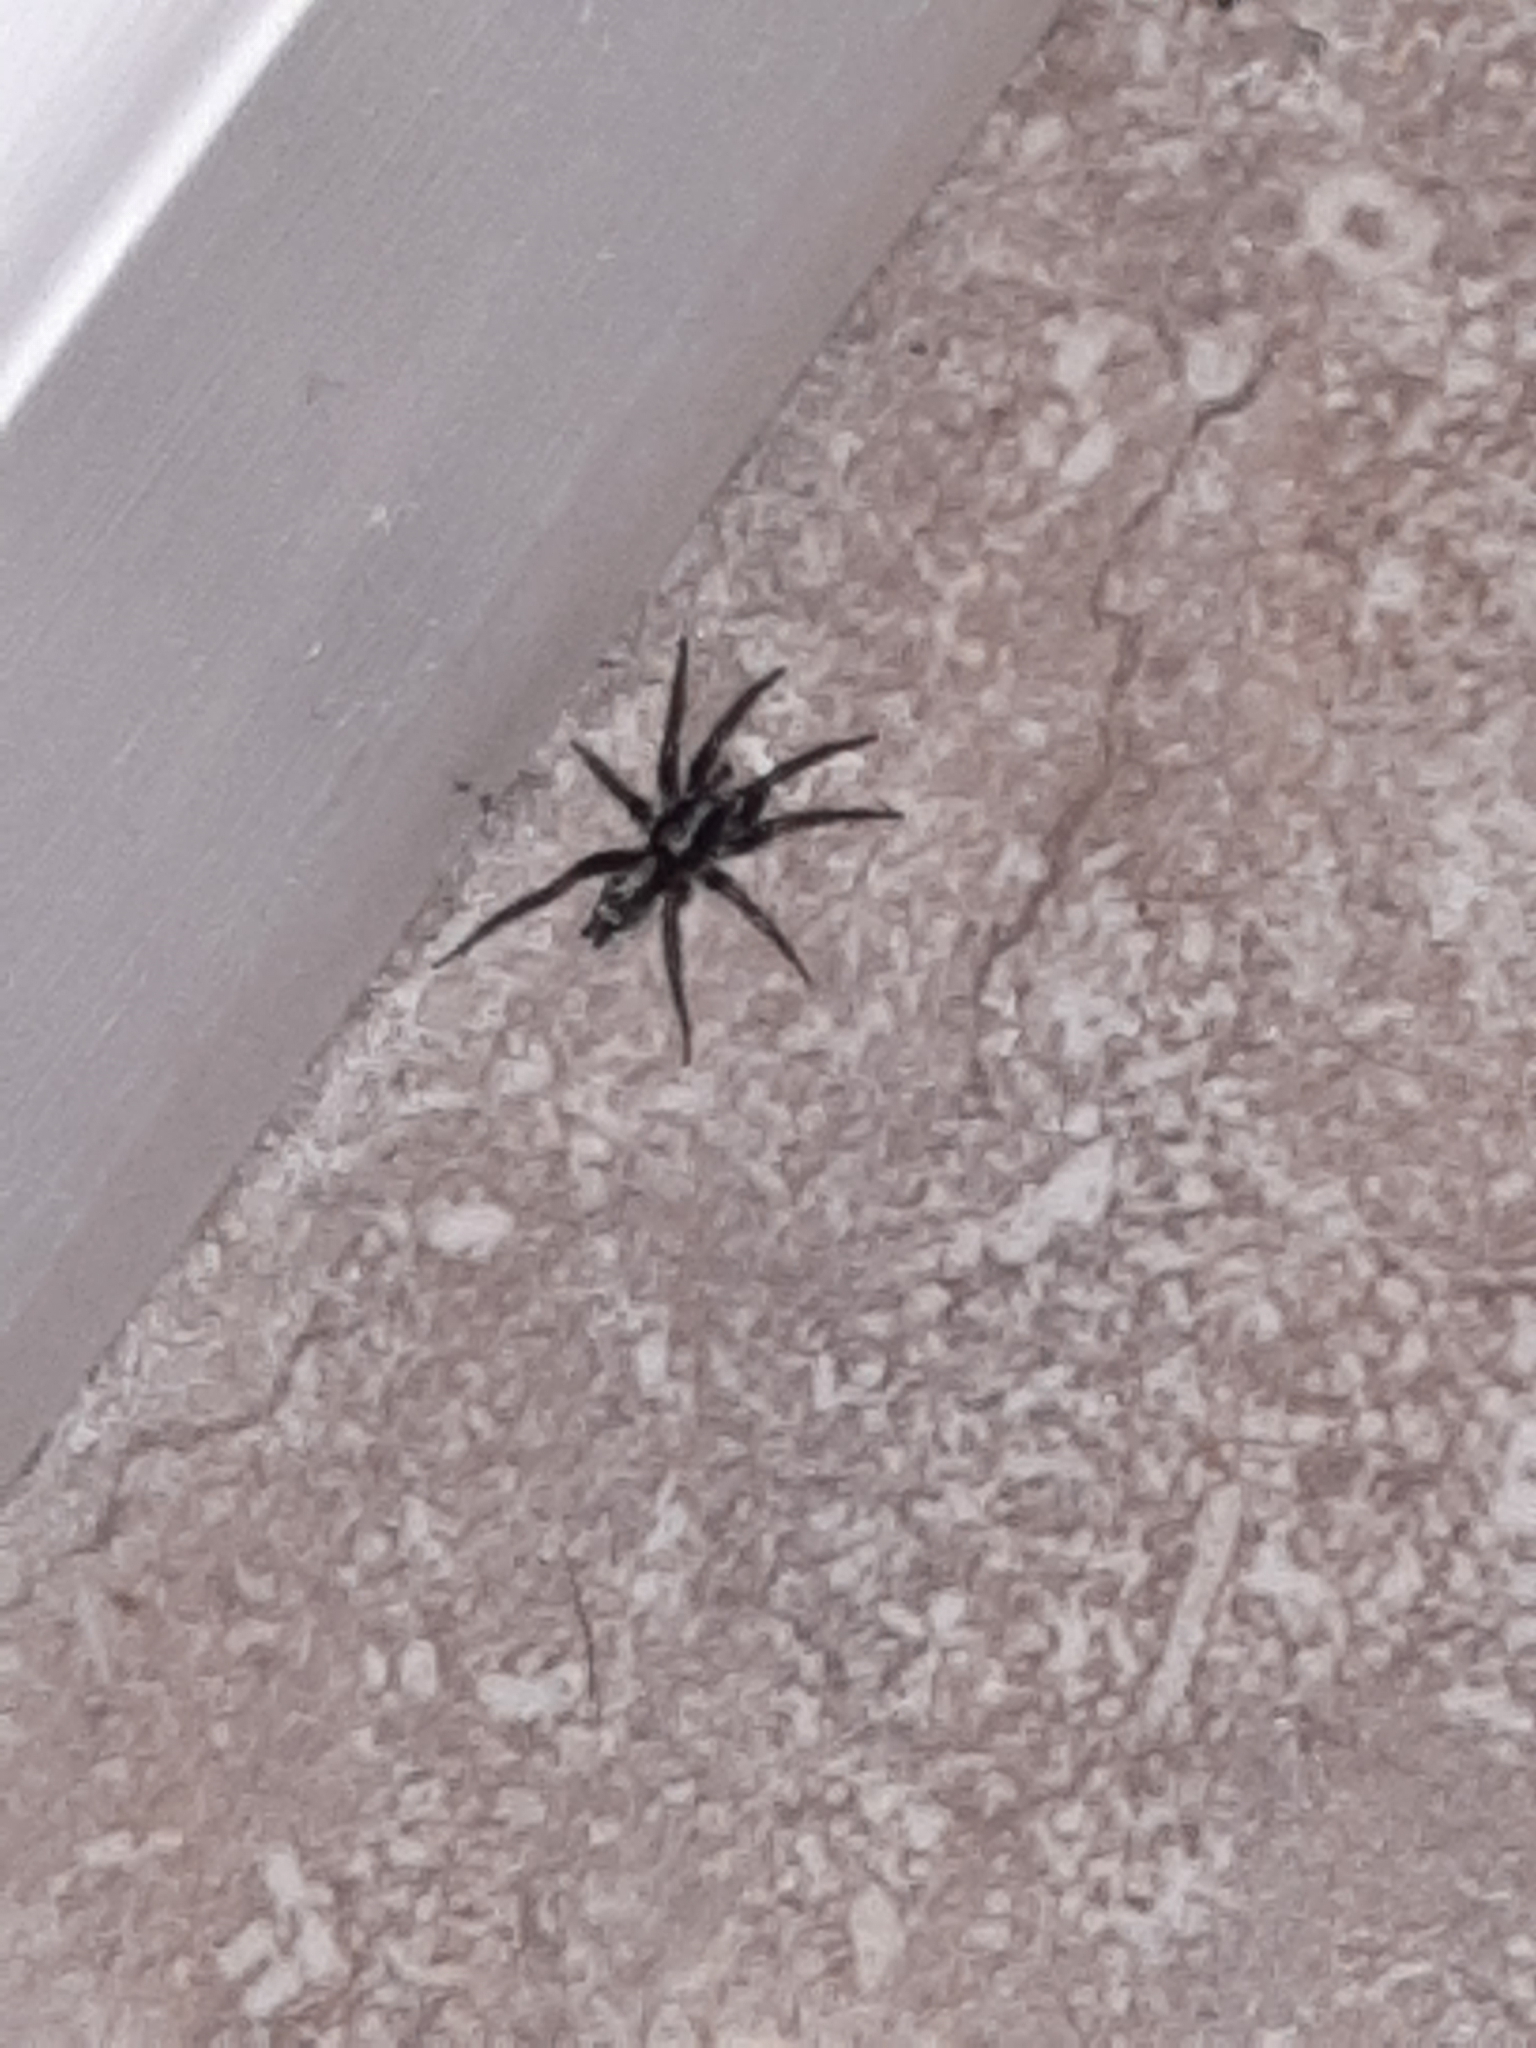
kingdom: Animalia
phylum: Arthropoda
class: Arachnida
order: Araneae
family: Gnaphosidae
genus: Herpyllus
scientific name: Herpyllus ecclesiasticus
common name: Eastern parson spider
